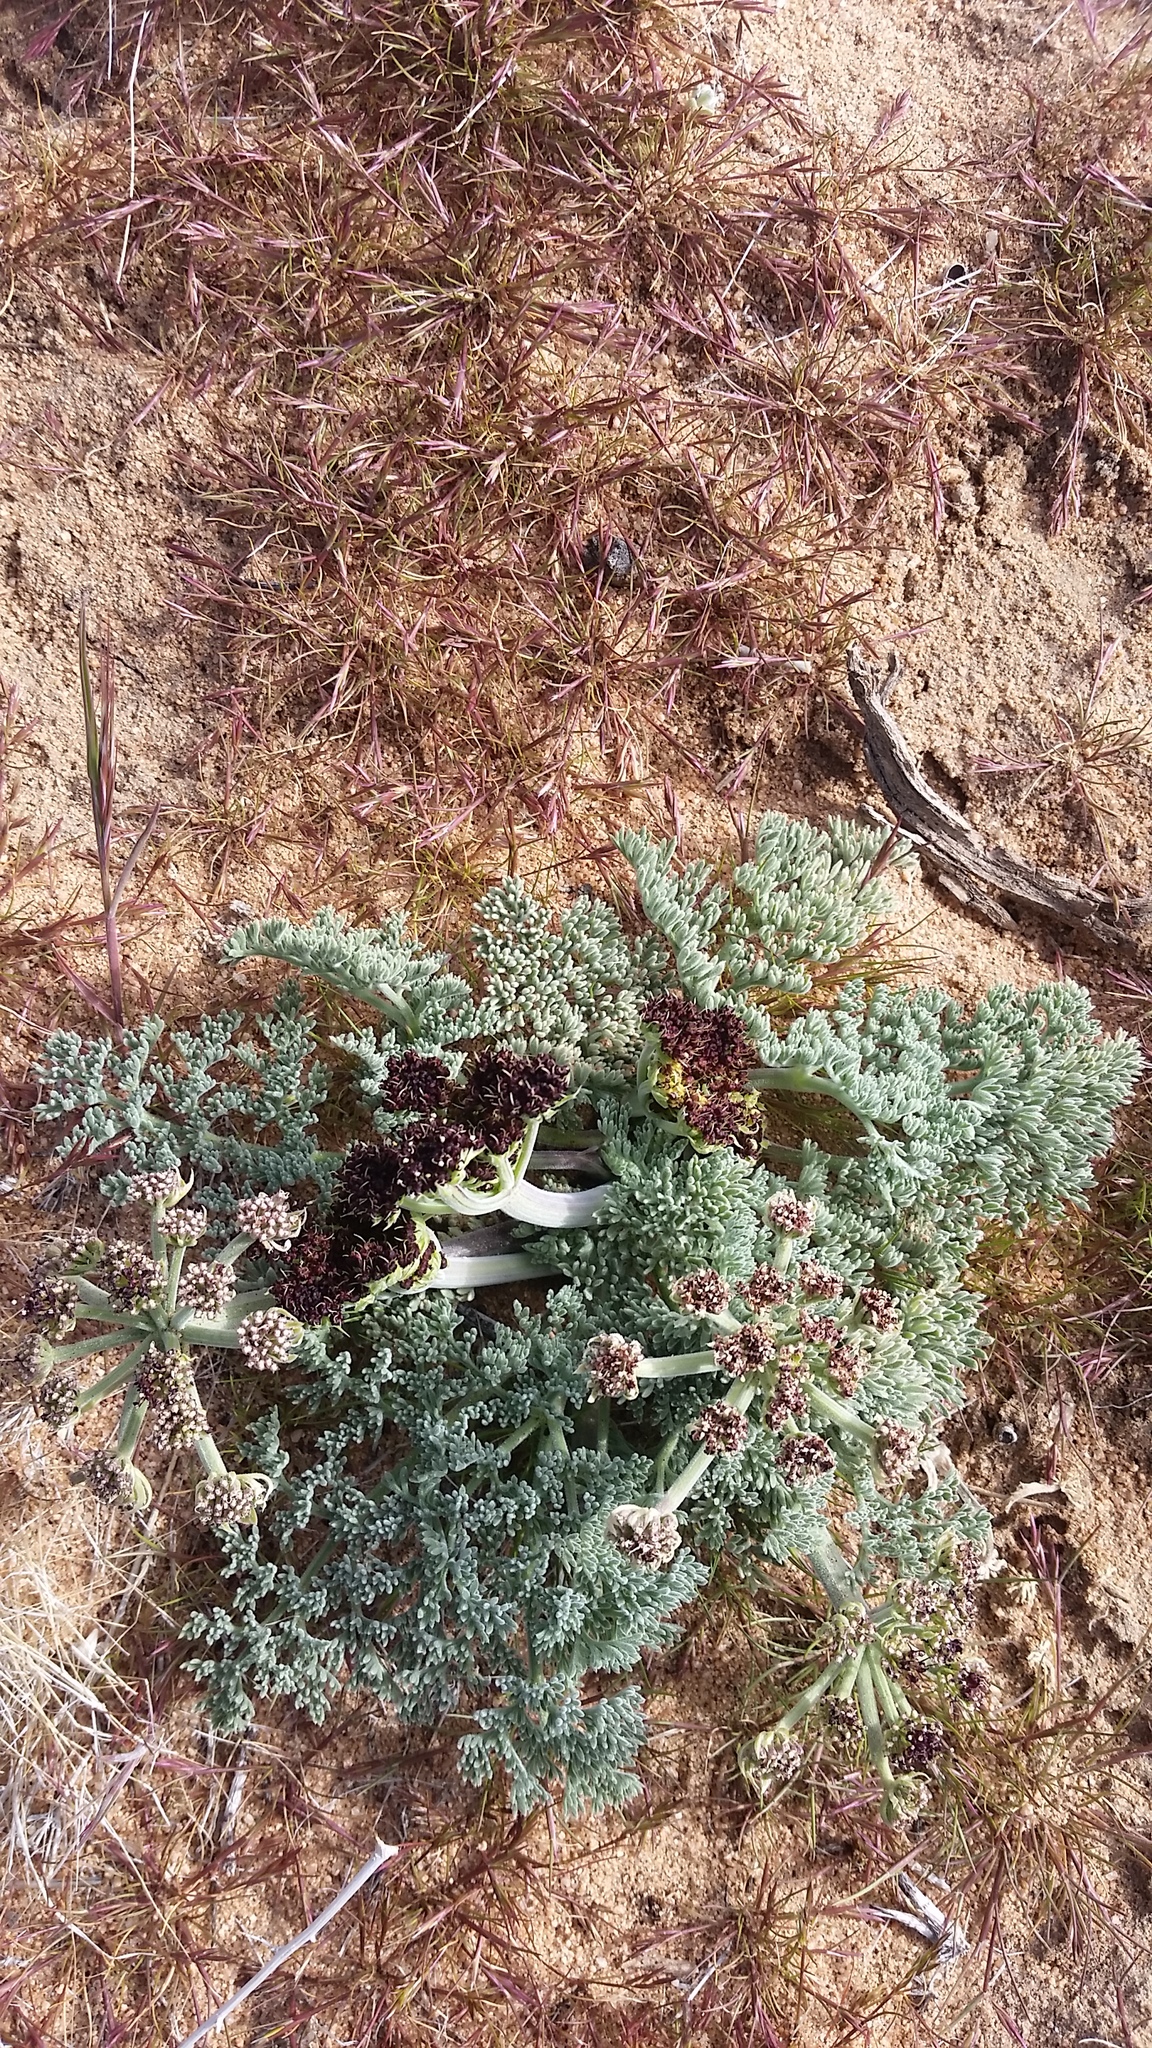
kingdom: Plantae
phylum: Tracheophyta
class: Magnoliopsida
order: Apiales
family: Apiaceae
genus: Lomatium
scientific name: Lomatium mohavense
